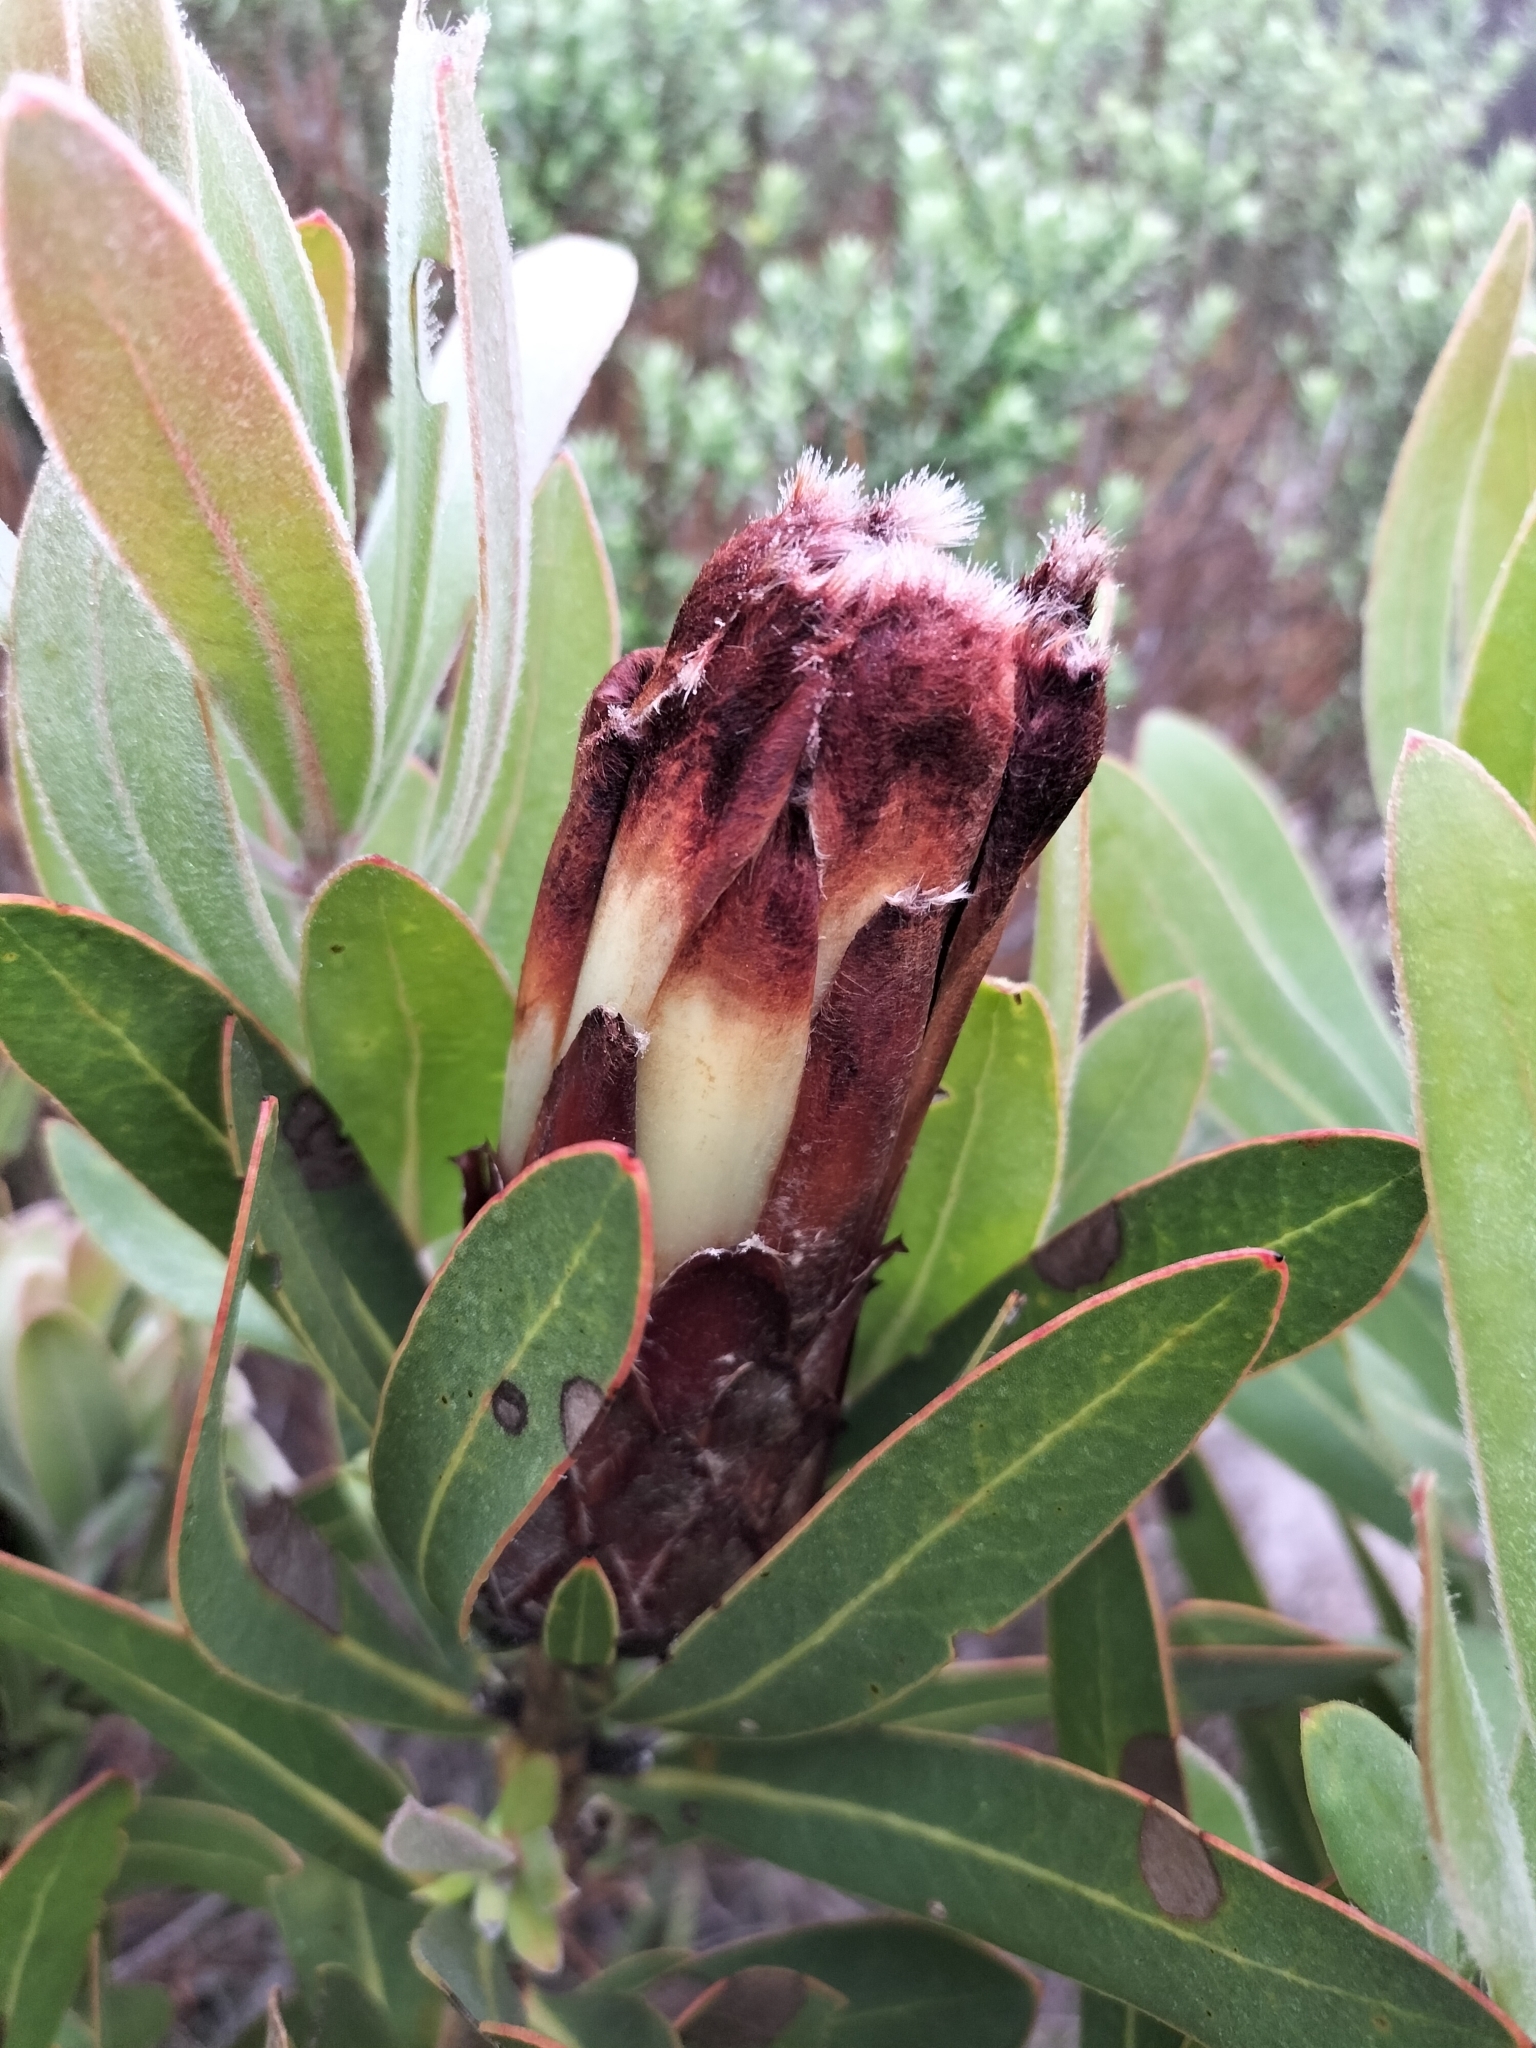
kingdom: Plantae
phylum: Tracheophyta
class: Magnoliopsida
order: Proteales
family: Proteaceae
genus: Protea
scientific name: Protea lepidocarpodendron
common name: Black-bearded protea
